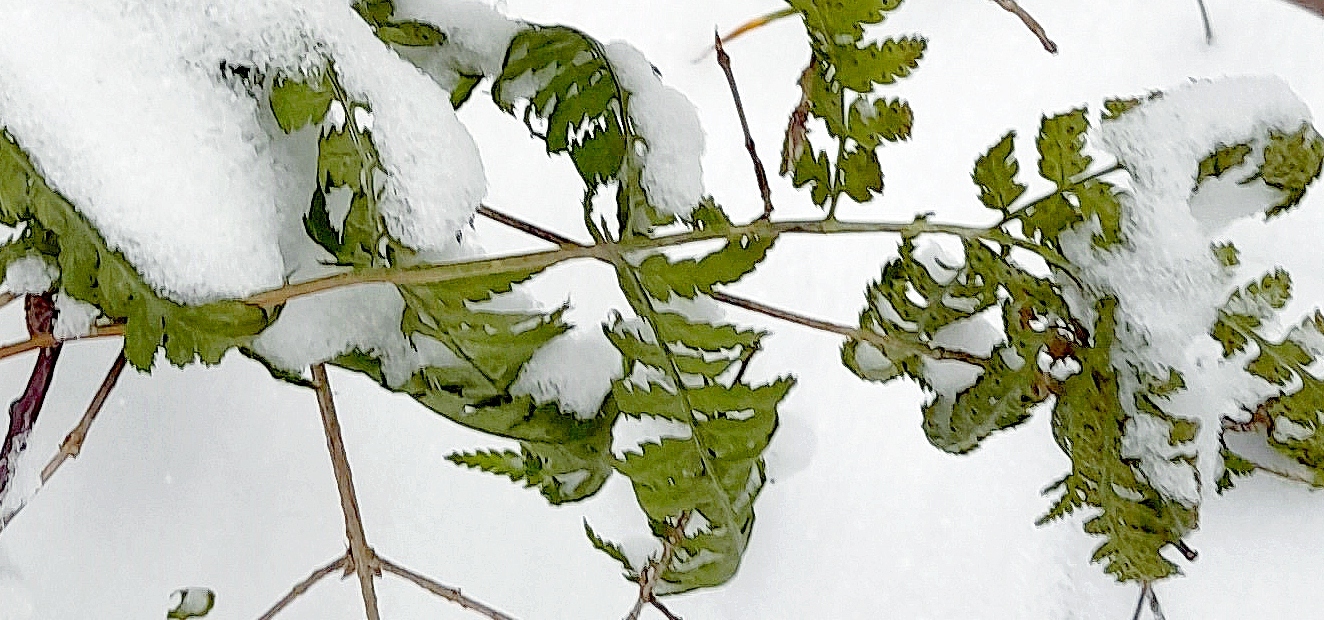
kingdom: Plantae
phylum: Tracheophyta
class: Polypodiopsida
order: Polypodiales
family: Dryopteridaceae
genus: Dryopteris
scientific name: Dryopteris carthusiana
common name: Narrow buckler-fern
